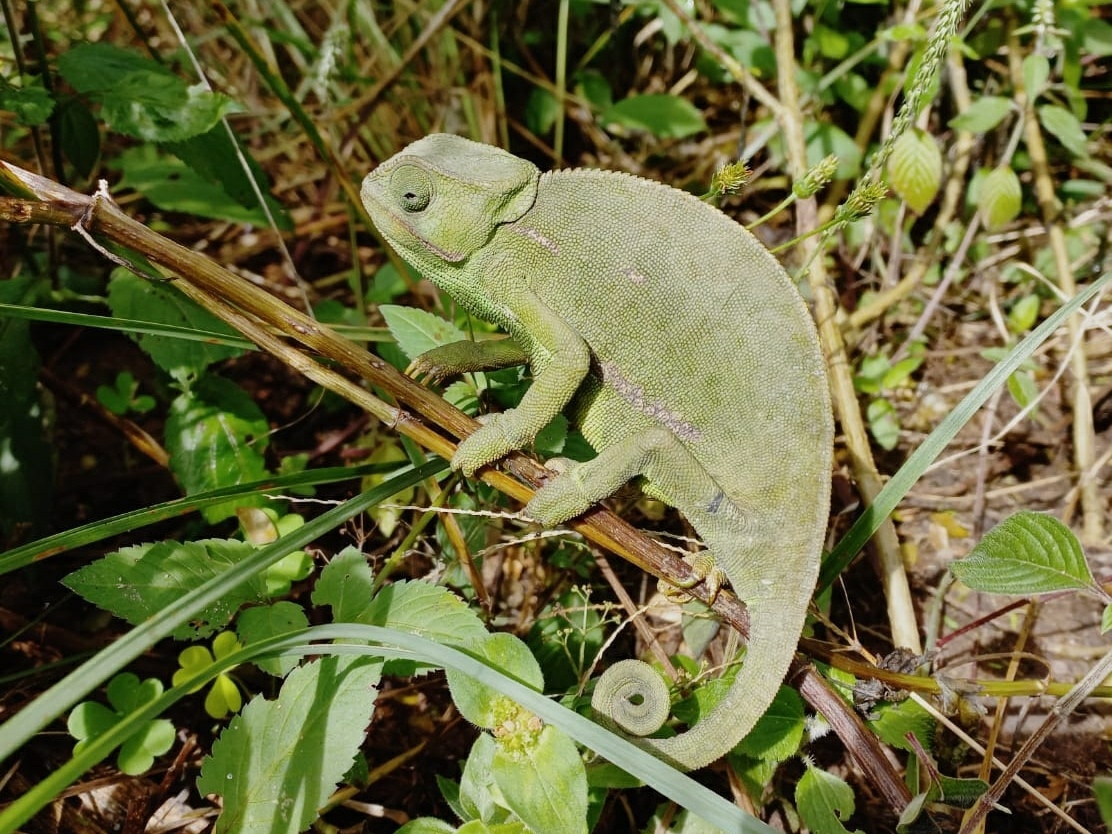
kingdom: Animalia
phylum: Chordata
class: Squamata
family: Chamaeleonidae
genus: Chamaeleo
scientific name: Chamaeleo dilepis
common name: Flapneck chameleon
